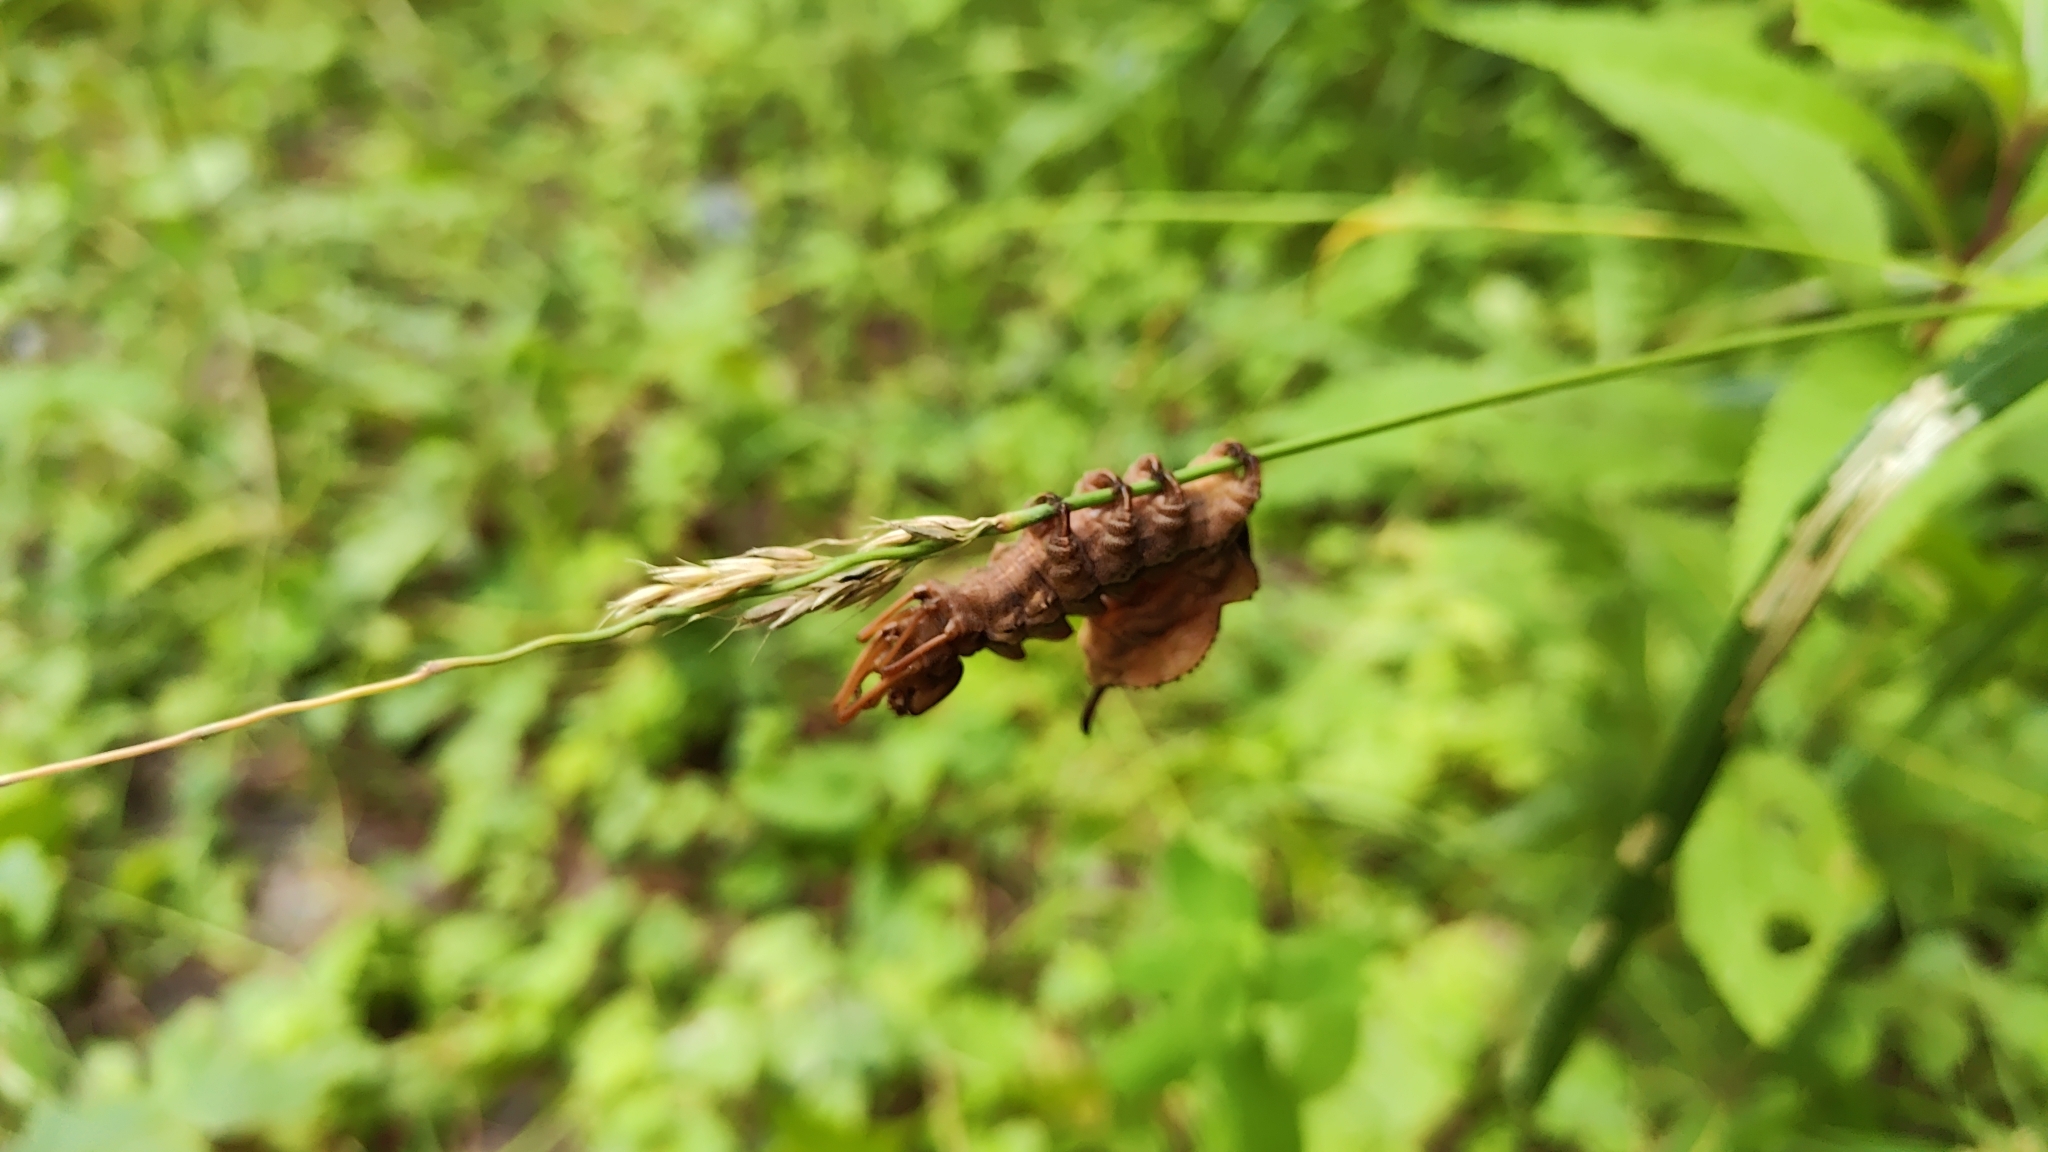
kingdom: Animalia
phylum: Arthropoda
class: Insecta
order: Lepidoptera
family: Notodontidae
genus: Stauropus
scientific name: Stauropus fagi
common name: Lobster moth
